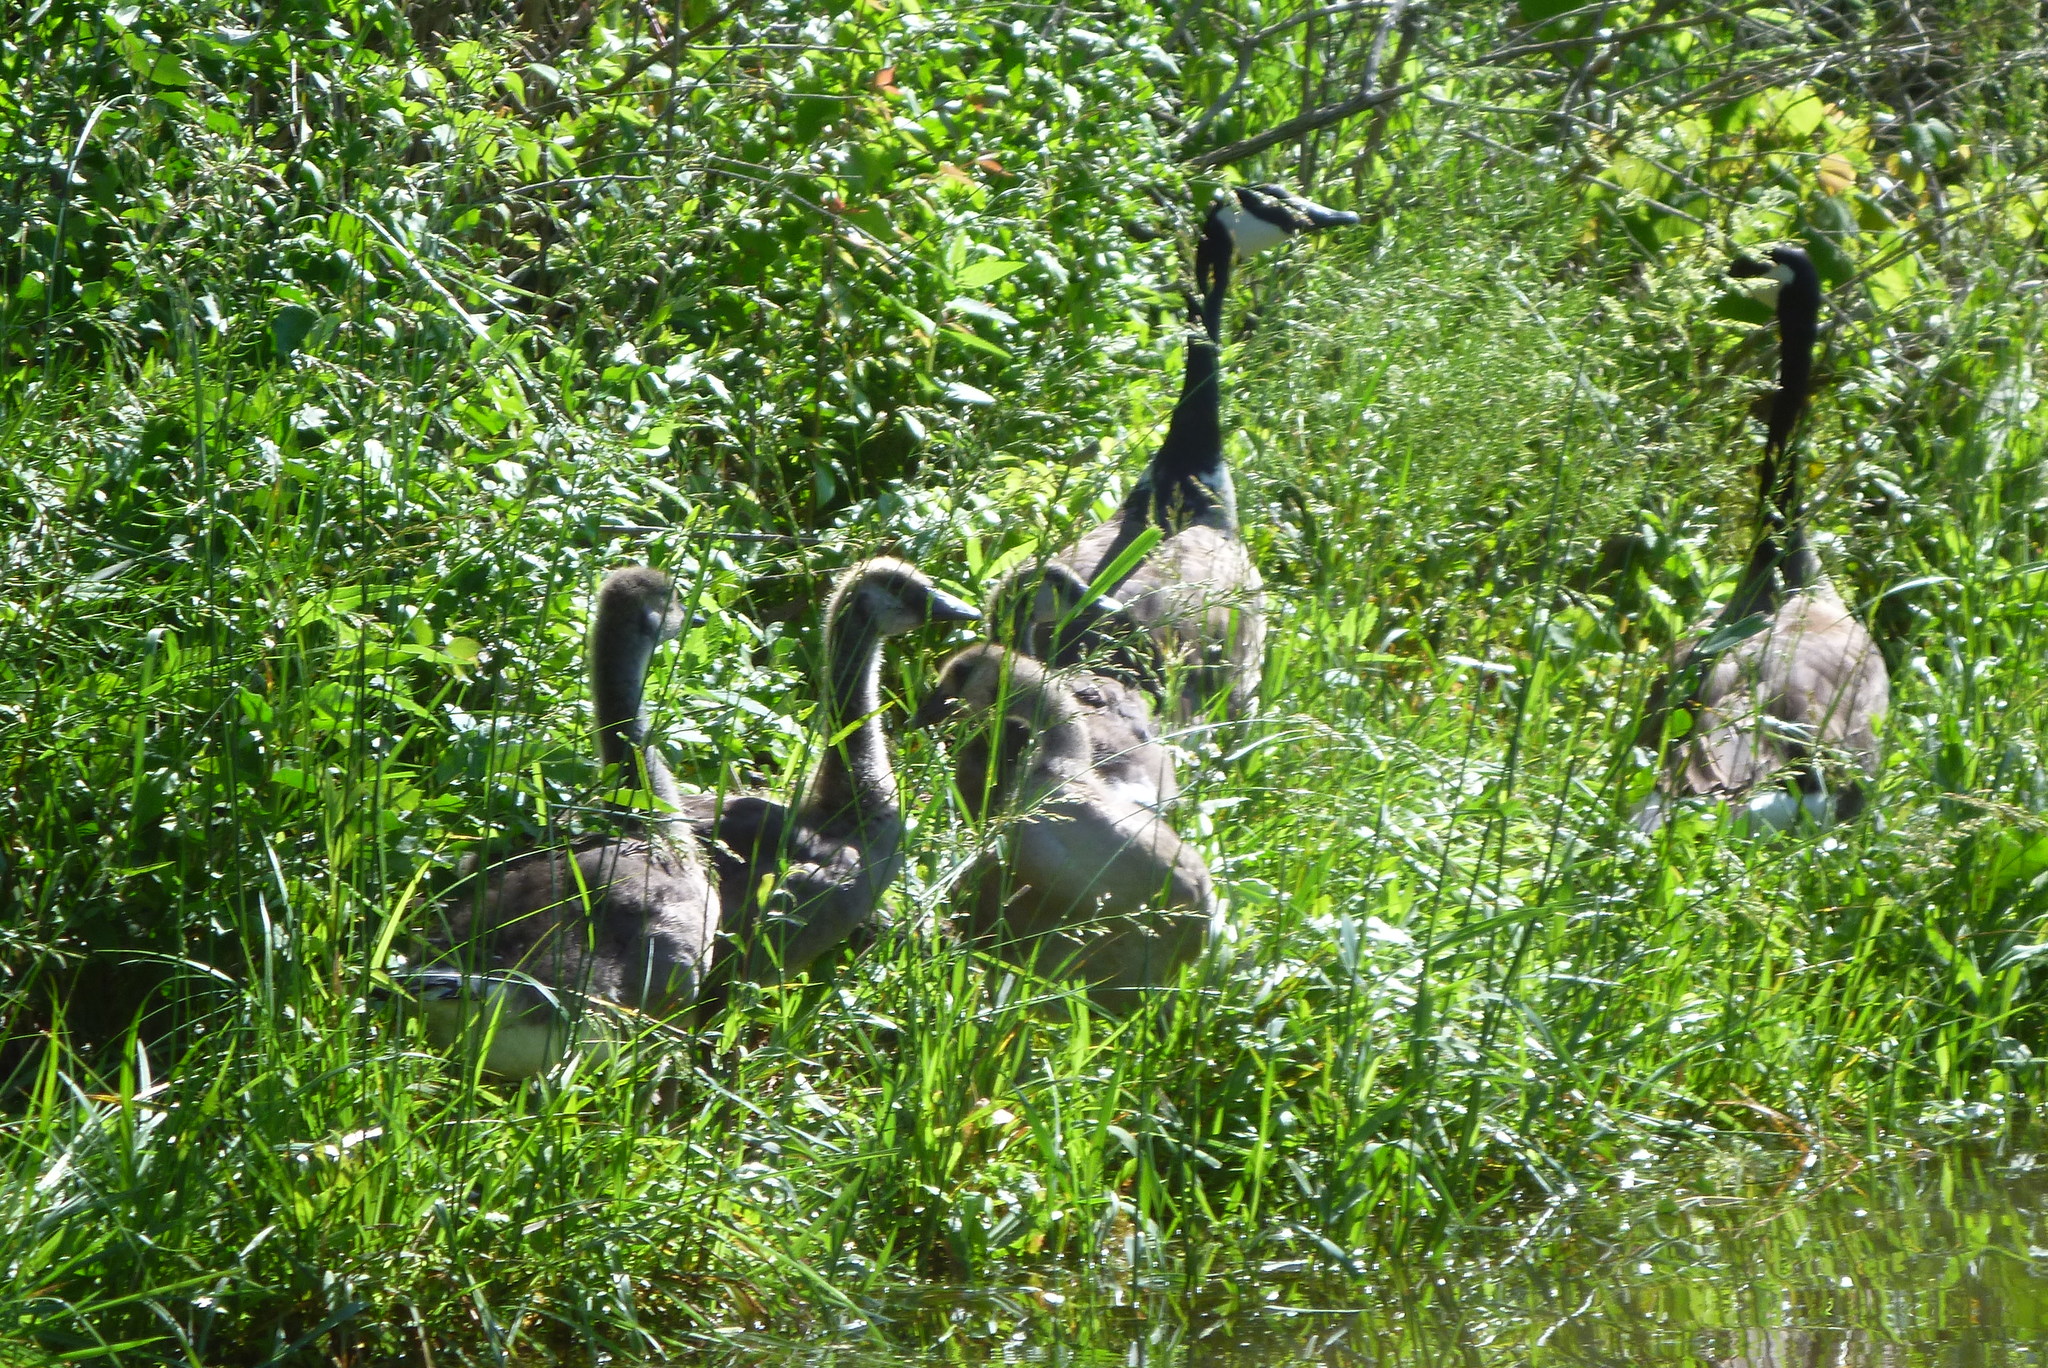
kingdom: Animalia
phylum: Chordata
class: Aves
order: Anseriformes
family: Anatidae
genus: Branta
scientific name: Branta canadensis
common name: Canada goose
